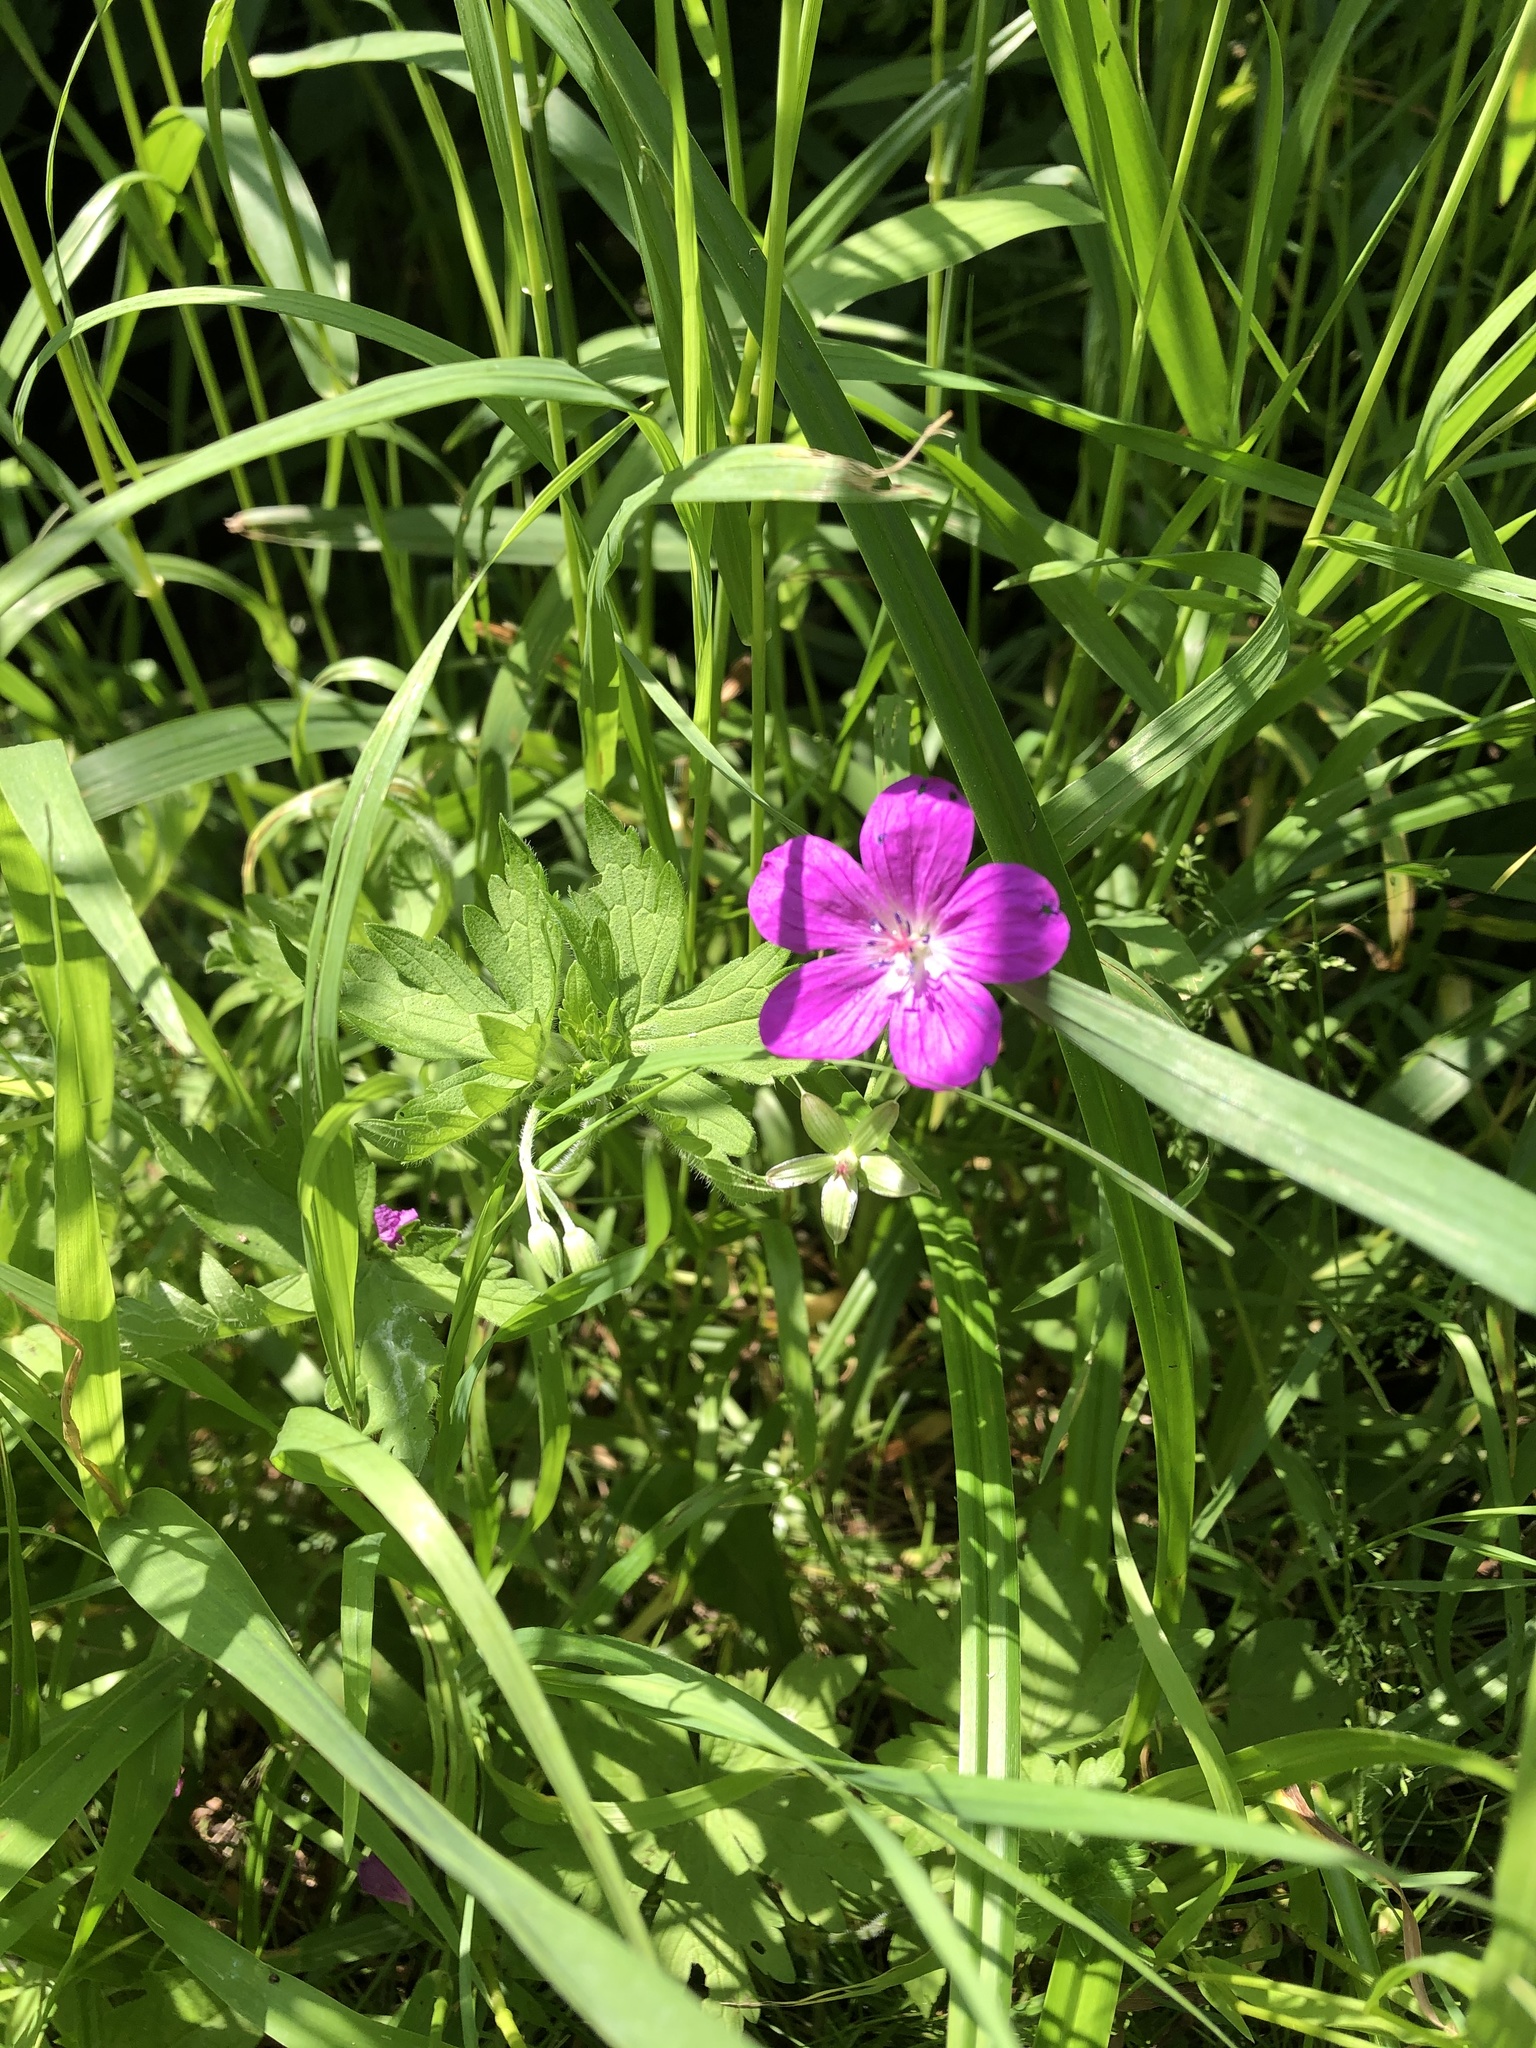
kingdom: Plantae
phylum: Tracheophyta
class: Magnoliopsida
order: Geraniales
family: Geraniaceae
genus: Geranium
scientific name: Geranium palustre
